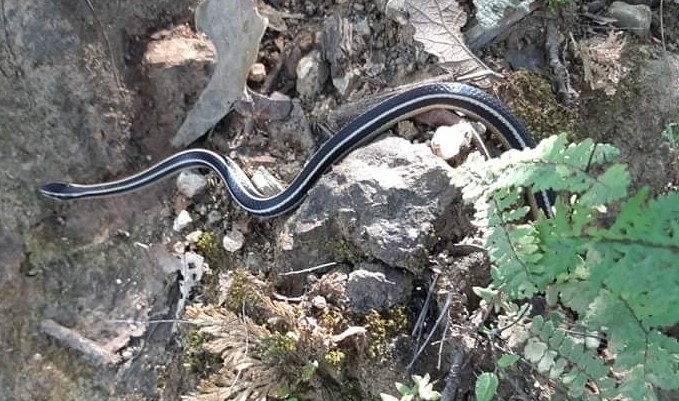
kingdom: Animalia
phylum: Chordata
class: Squamata
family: Colubridae
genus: Rhadinaea
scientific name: Rhadinaea taeniata
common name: Pine-oak snake
